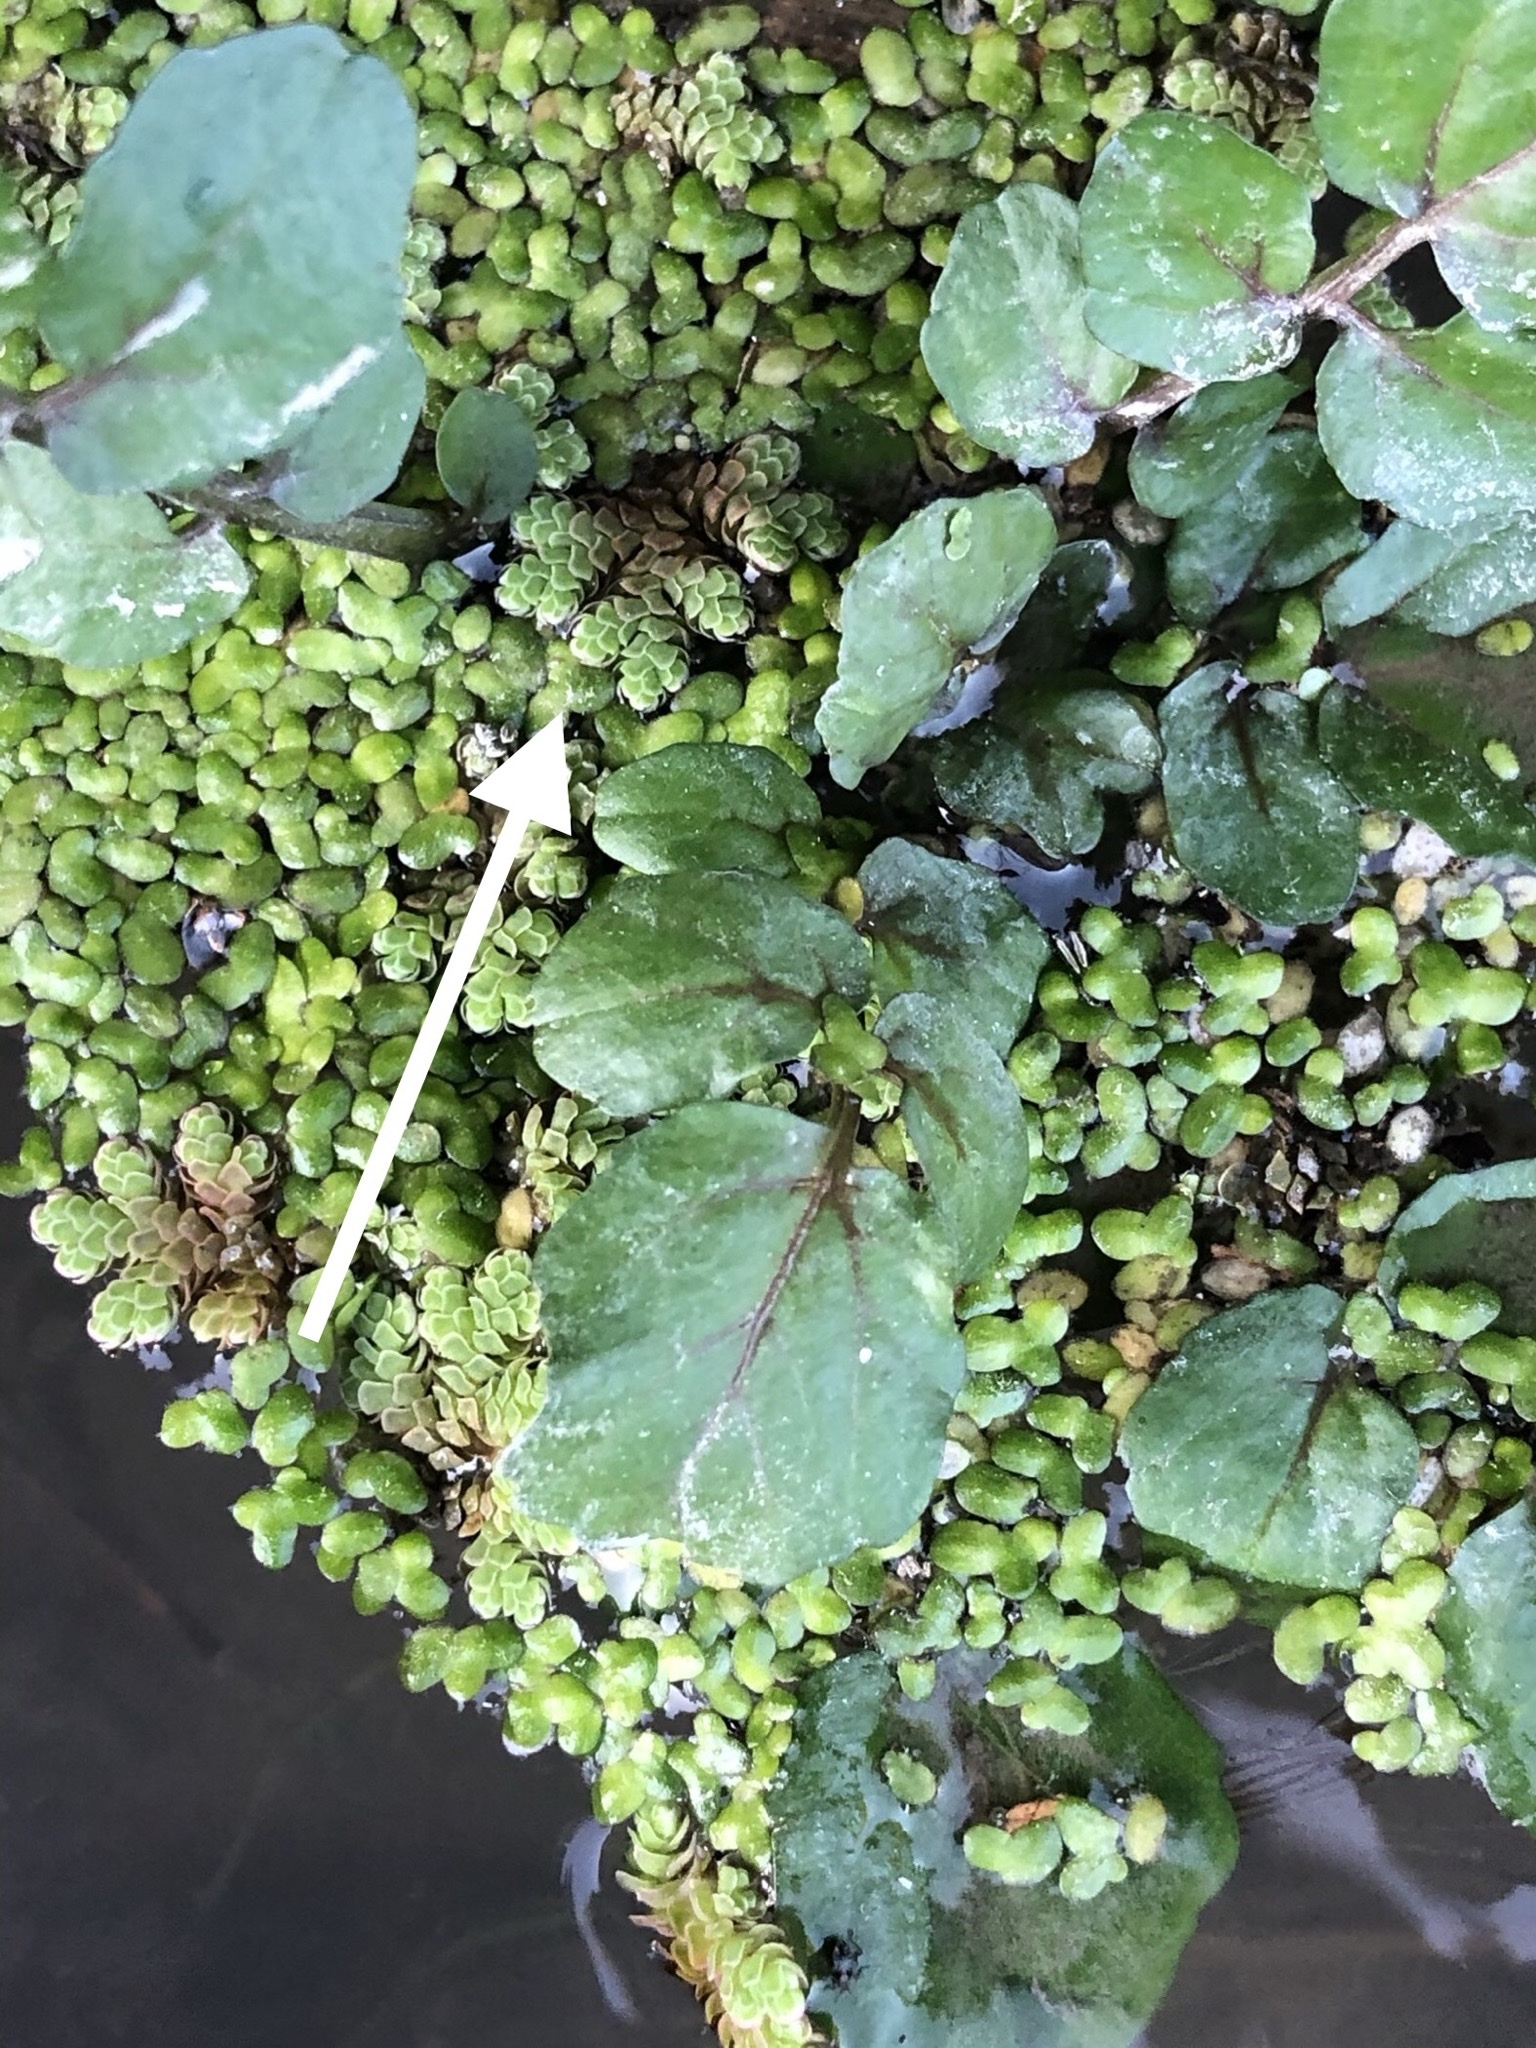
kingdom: Plantae
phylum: Tracheophyta
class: Polypodiopsida
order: Salviniales
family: Salviniaceae
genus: Azolla
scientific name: Azolla rubra
